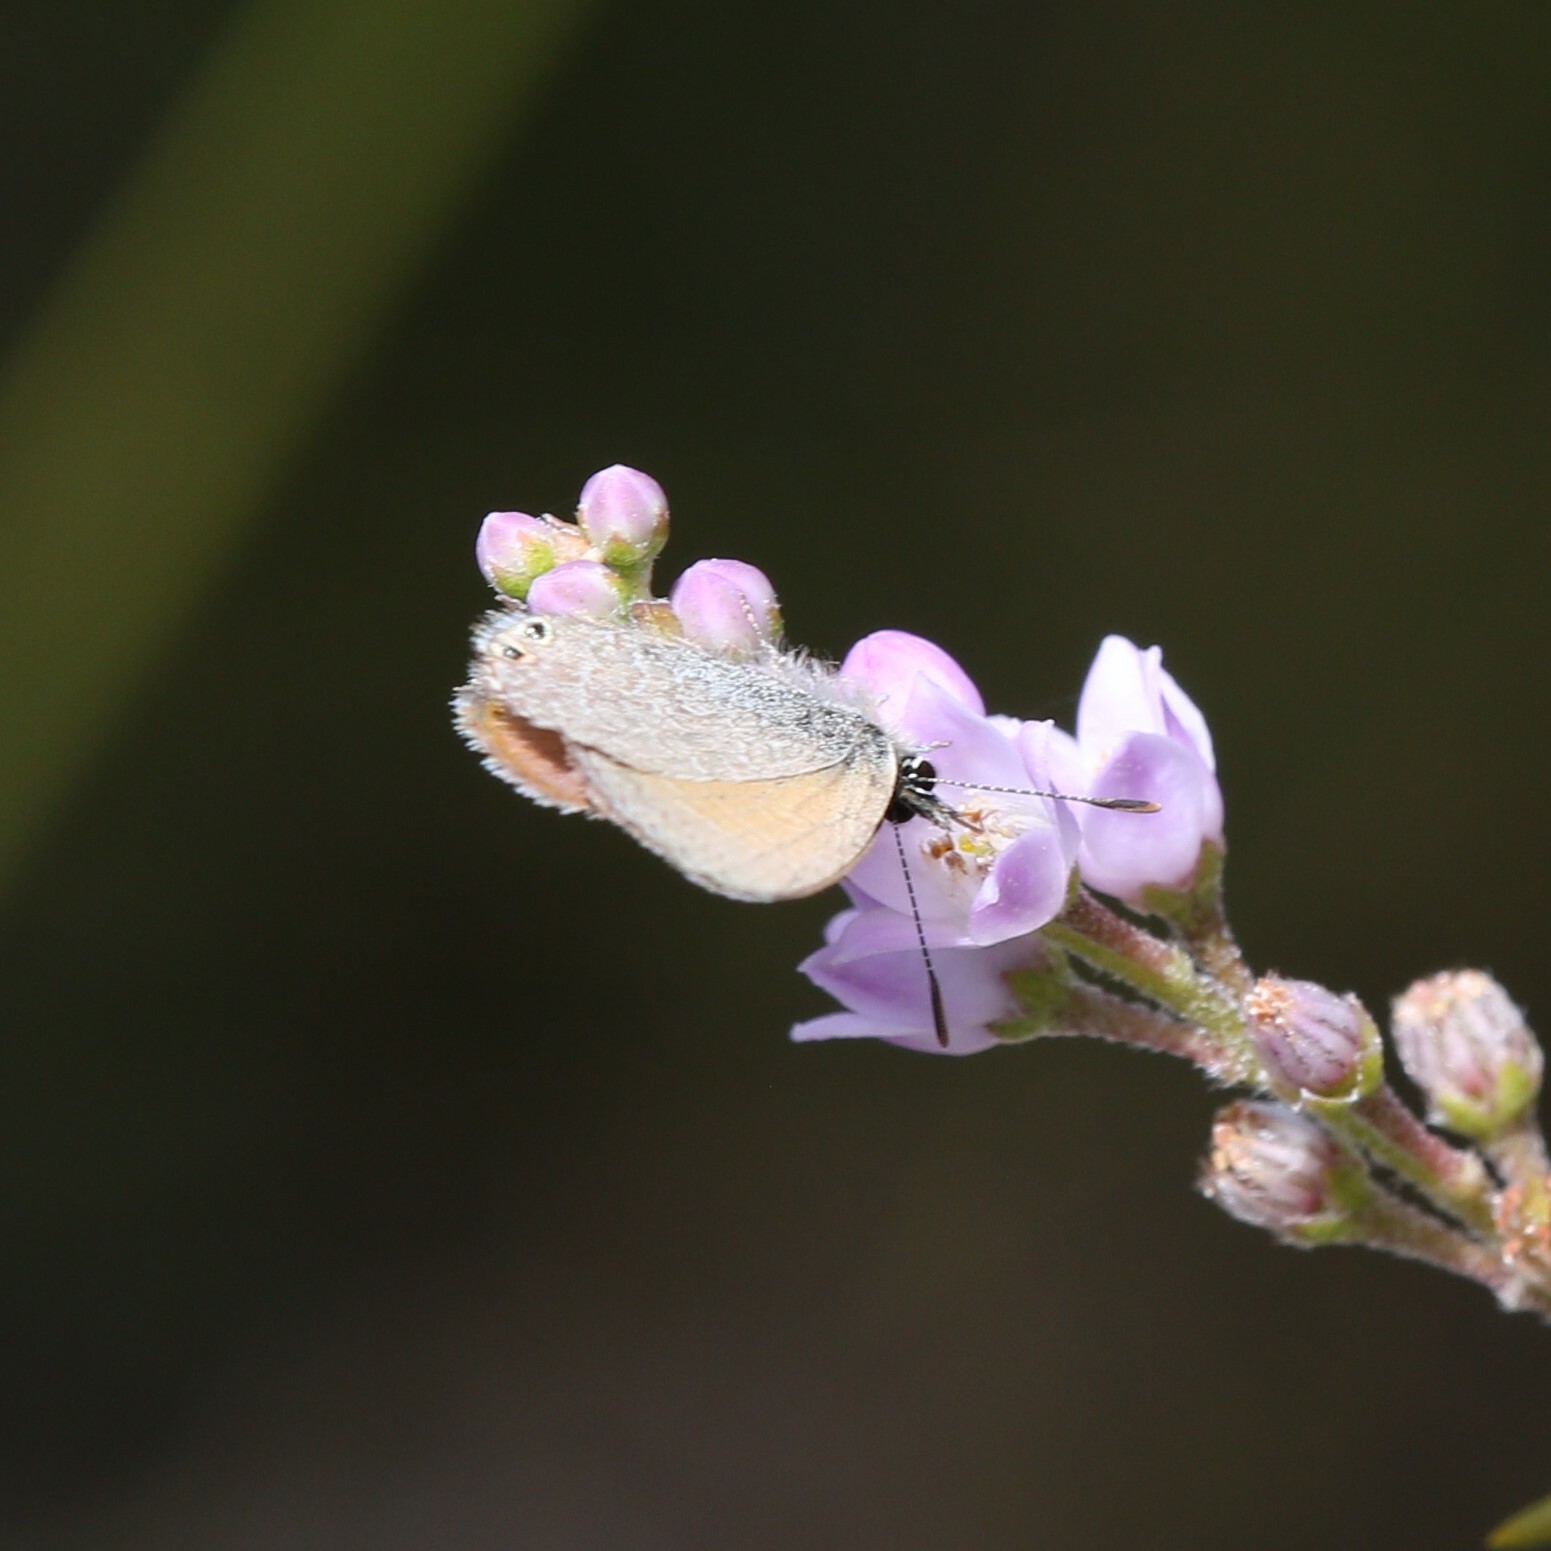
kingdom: Animalia
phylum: Arthropoda
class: Insecta
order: Lepidoptera
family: Lycaenidae
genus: Nacaduba
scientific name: Nacaduba biocellata
